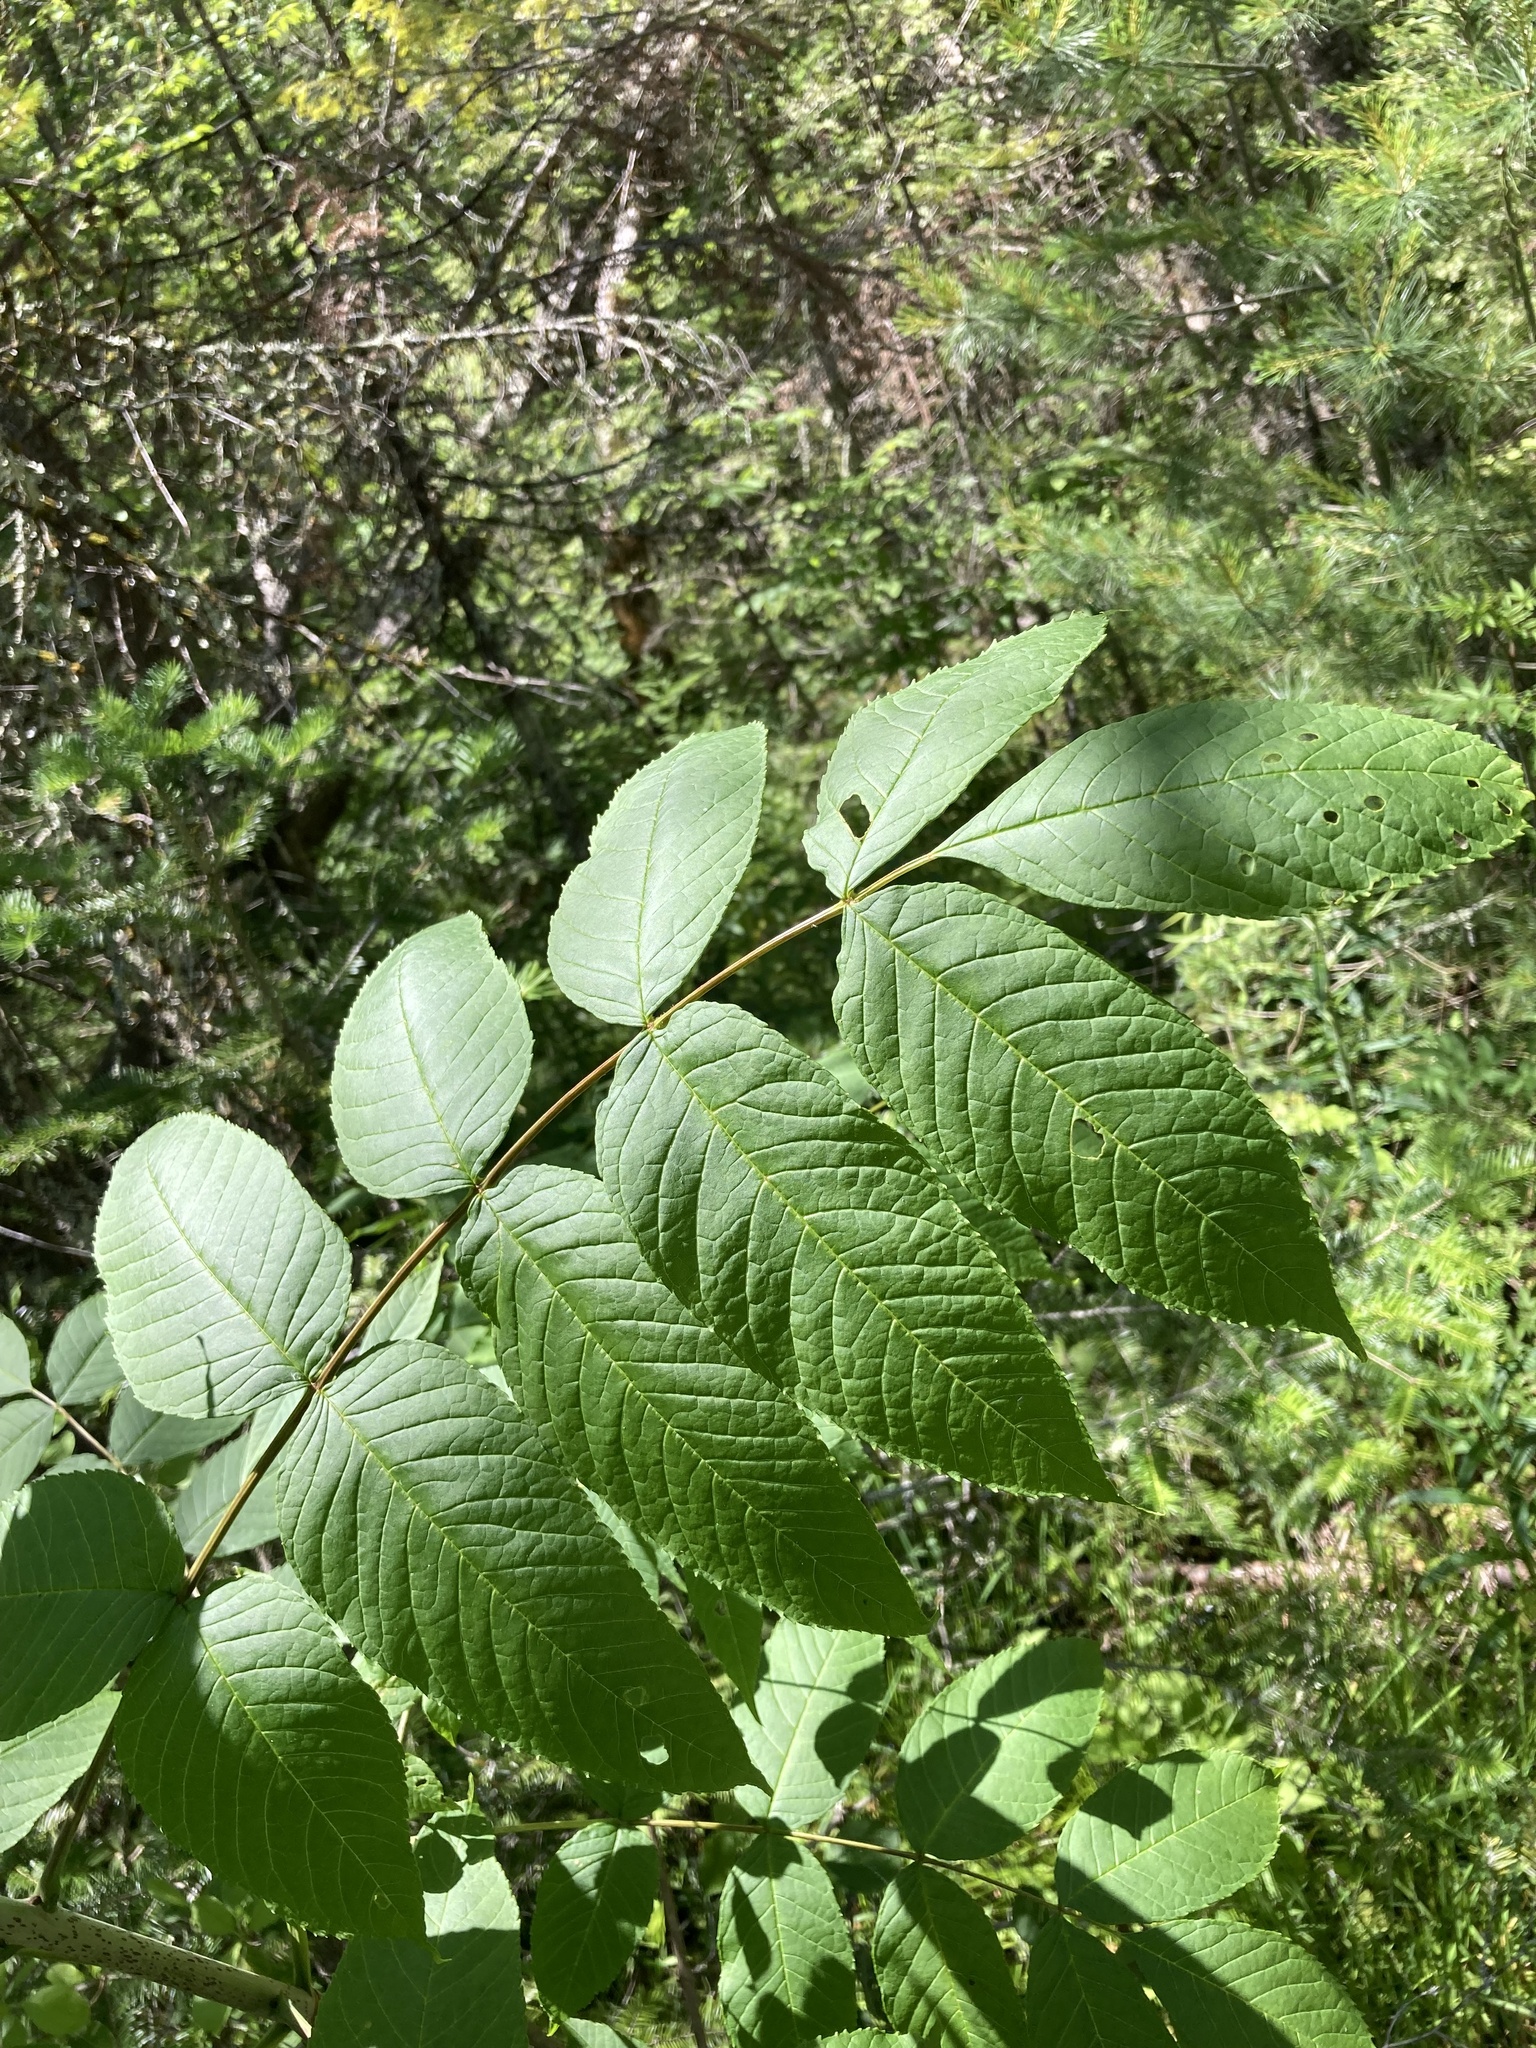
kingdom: Plantae
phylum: Tracheophyta
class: Magnoliopsida
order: Lamiales
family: Oleaceae
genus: Fraxinus
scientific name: Fraxinus nigra
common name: Black ash
